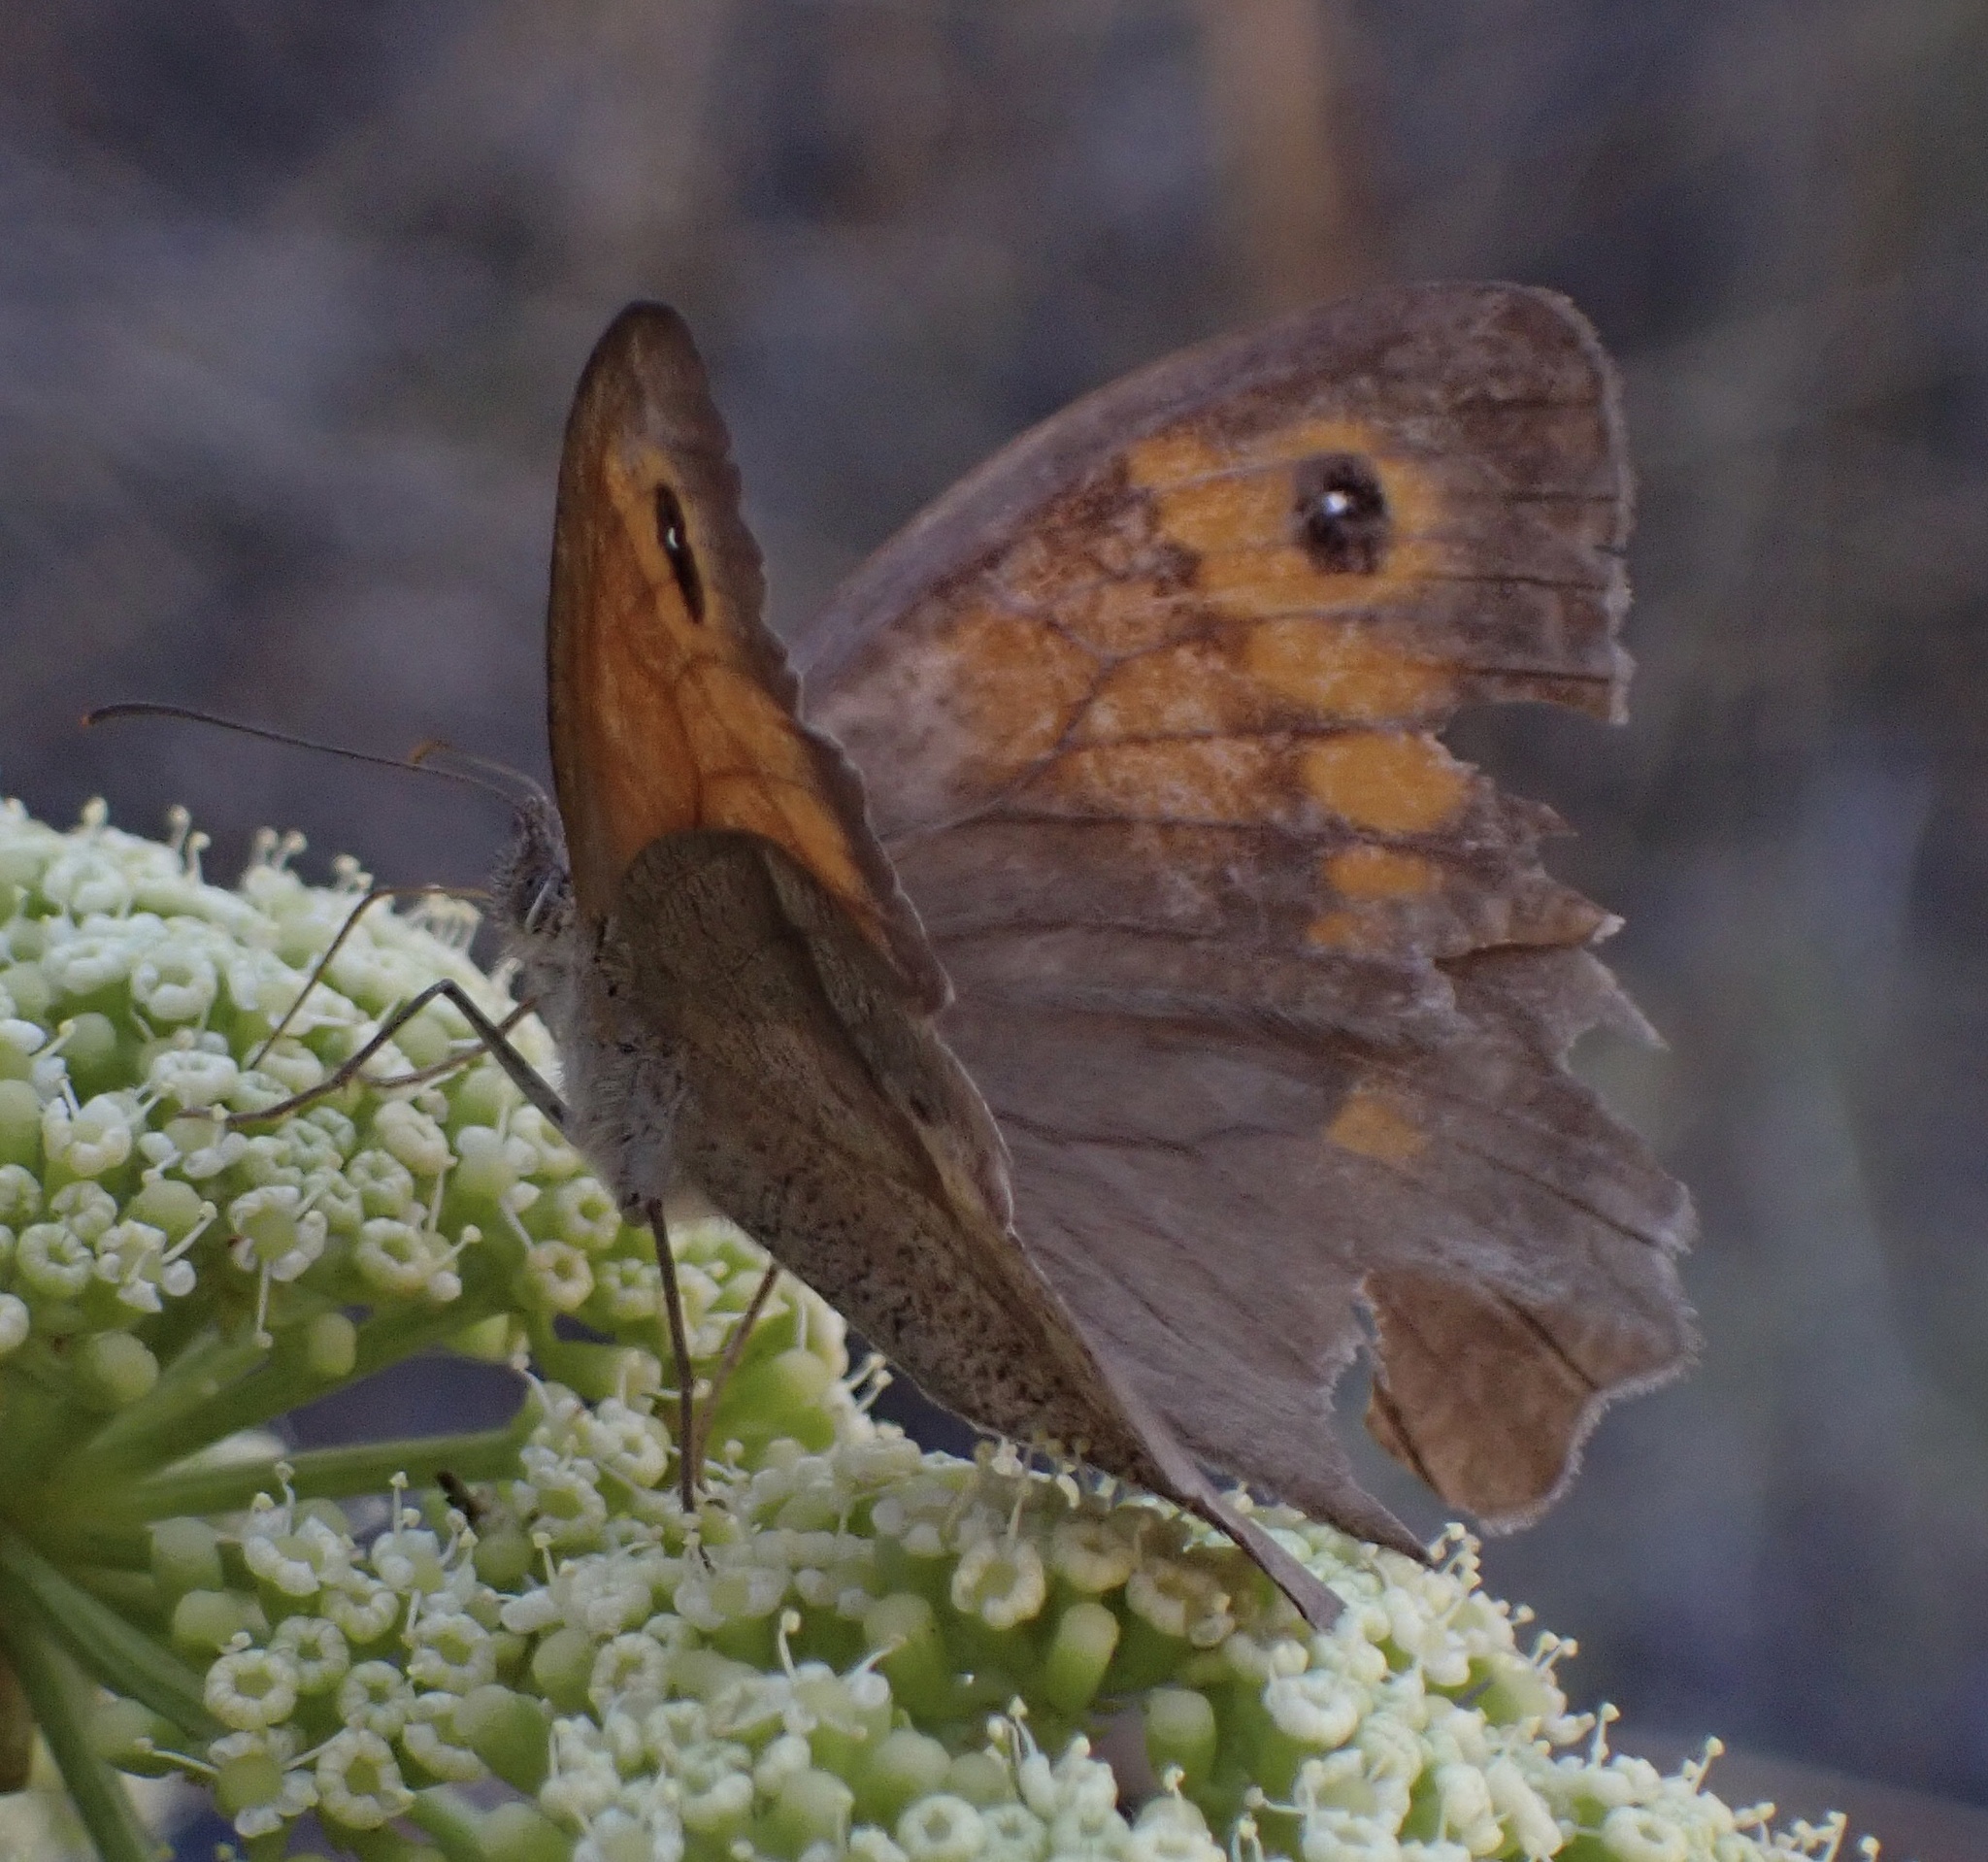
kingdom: Animalia
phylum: Arthropoda
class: Insecta
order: Lepidoptera
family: Nymphalidae
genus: Maniola
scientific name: Maniola jurtina
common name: Meadow brown
